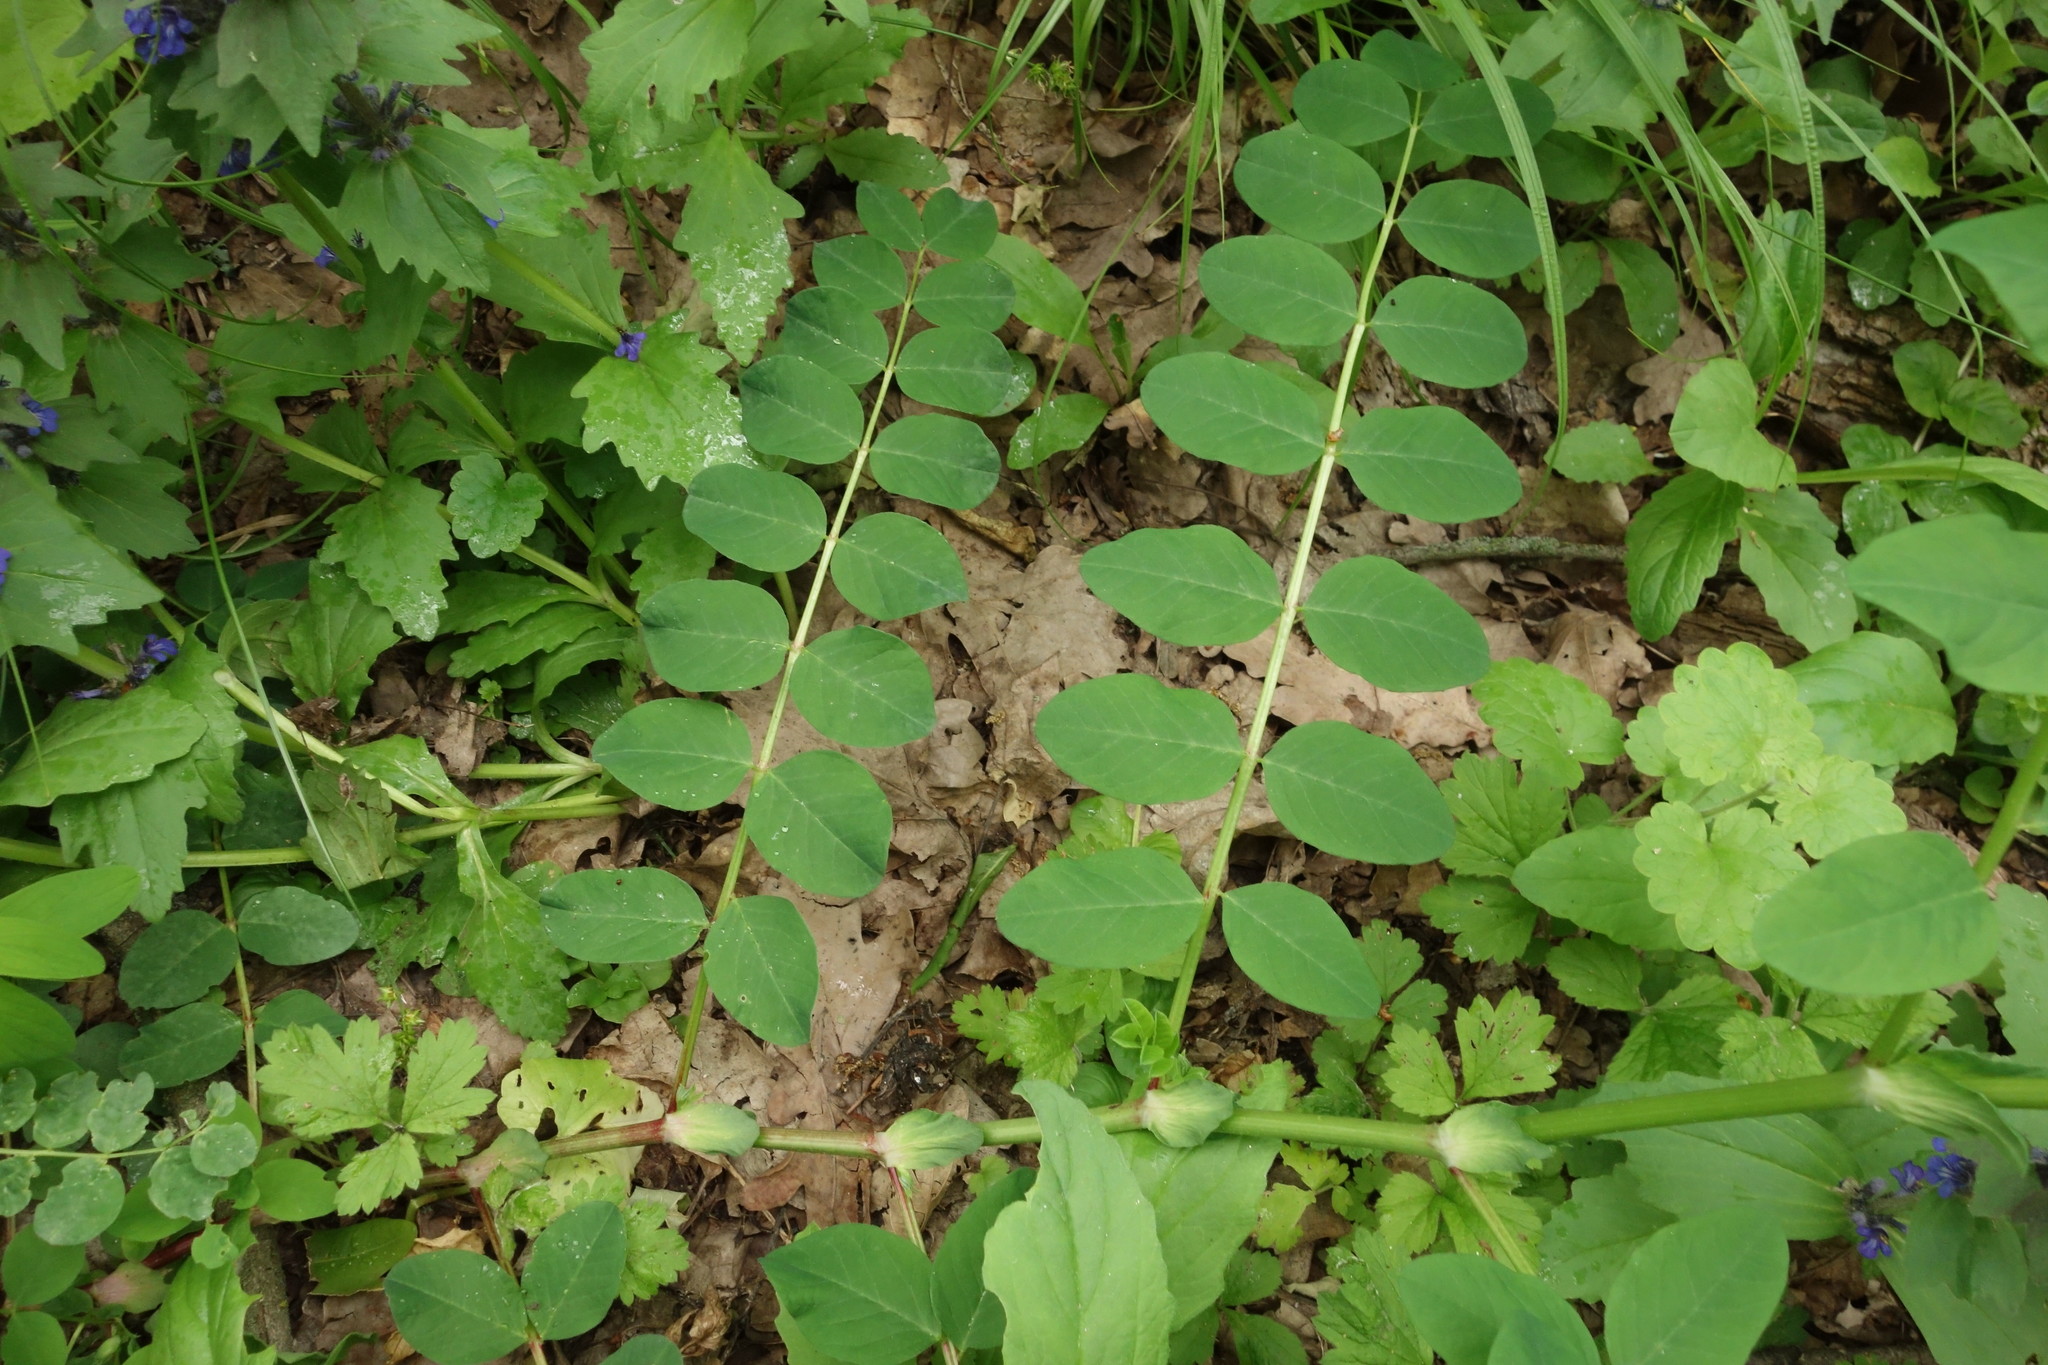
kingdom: Plantae
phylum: Tracheophyta
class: Magnoliopsida
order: Fabales
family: Fabaceae
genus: Astragalus
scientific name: Astragalus glycyphyllos
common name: Wild liquorice
